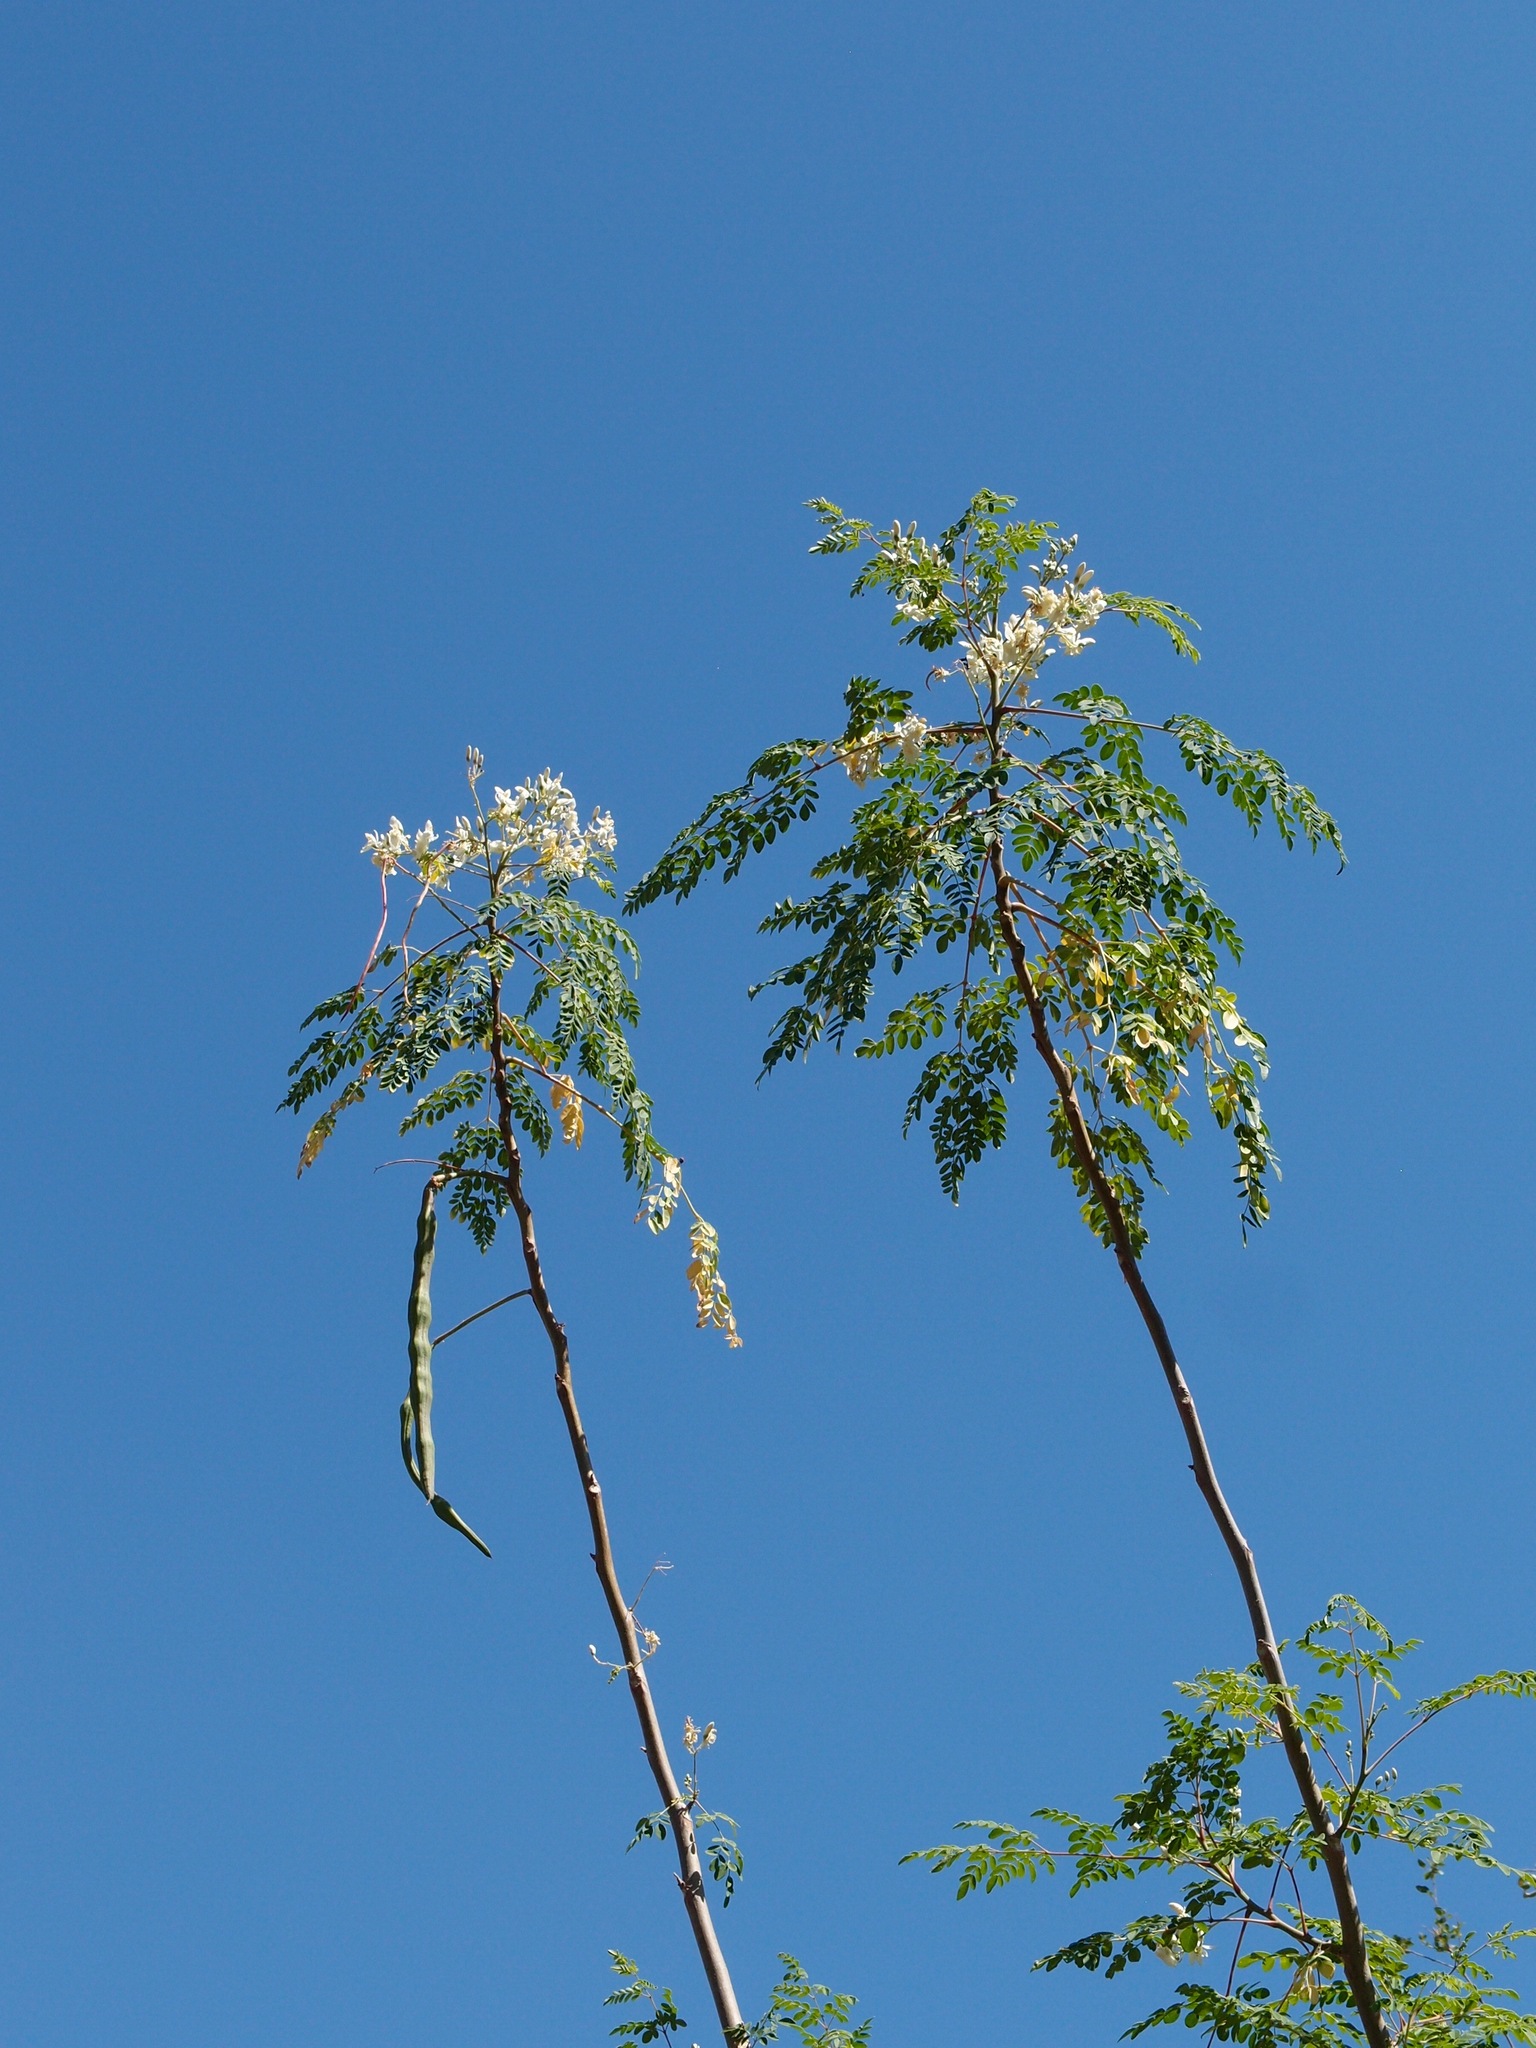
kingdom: Plantae
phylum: Tracheophyta
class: Magnoliopsida
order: Brassicales
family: Moringaceae
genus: Moringa
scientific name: Moringa oleifera
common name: Horseradish-tree
